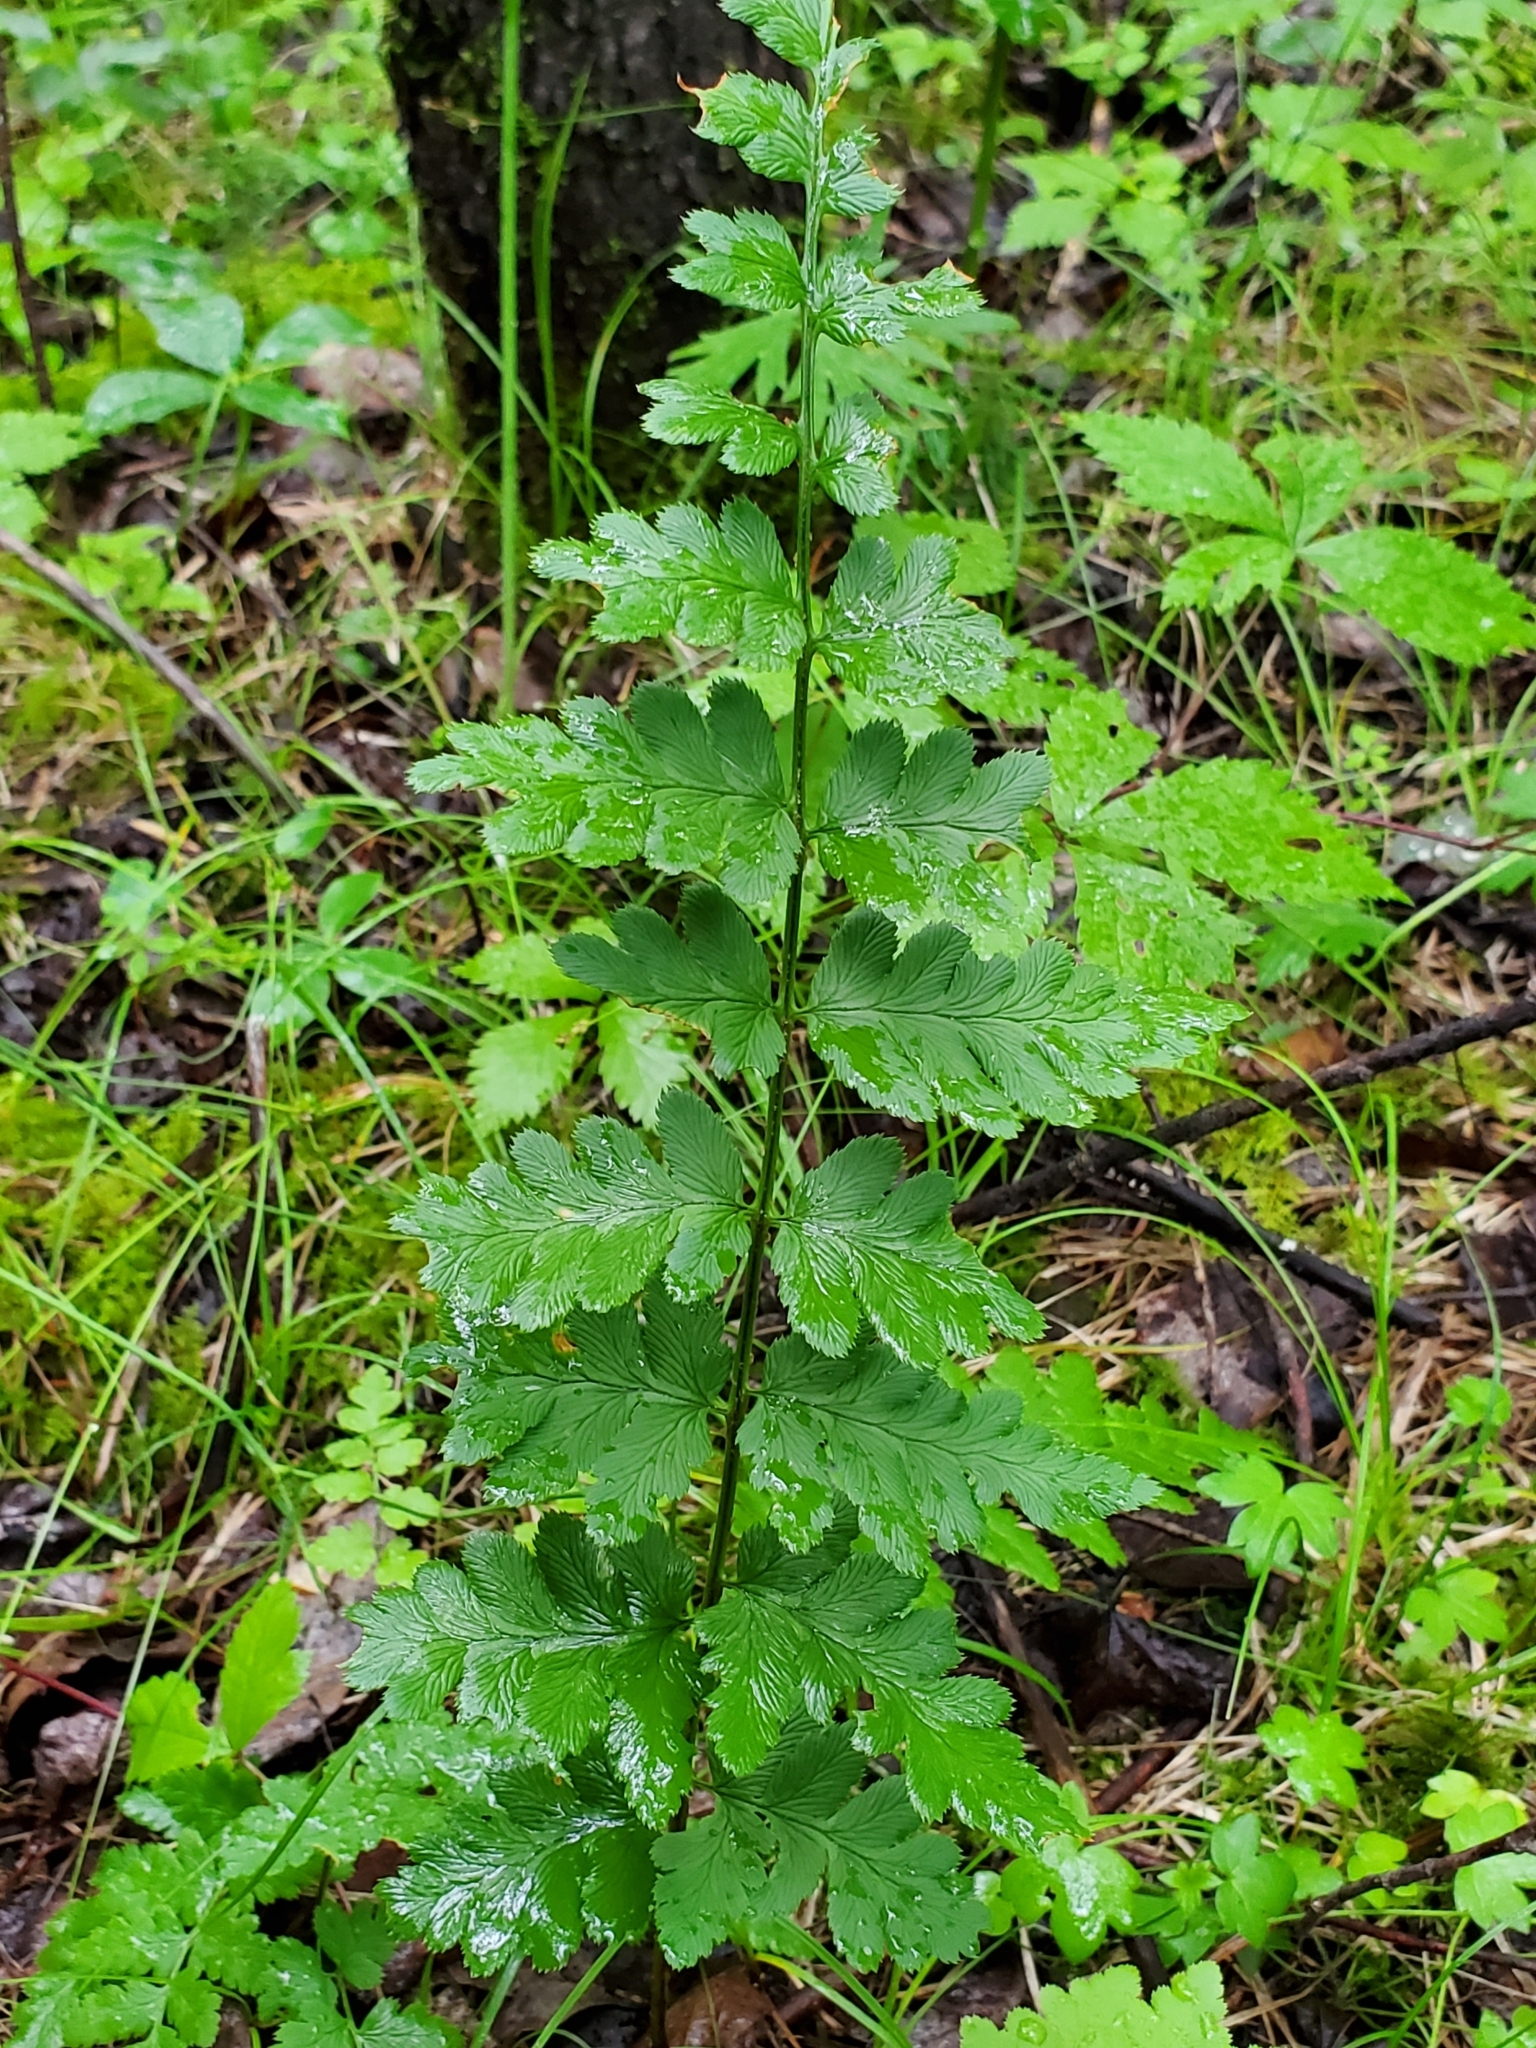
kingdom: Plantae
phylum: Tracheophyta
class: Polypodiopsida
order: Polypodiales
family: Dryopteridaceae
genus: Dryopteris
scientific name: Dryopteris cristata
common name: Crested wood fern
